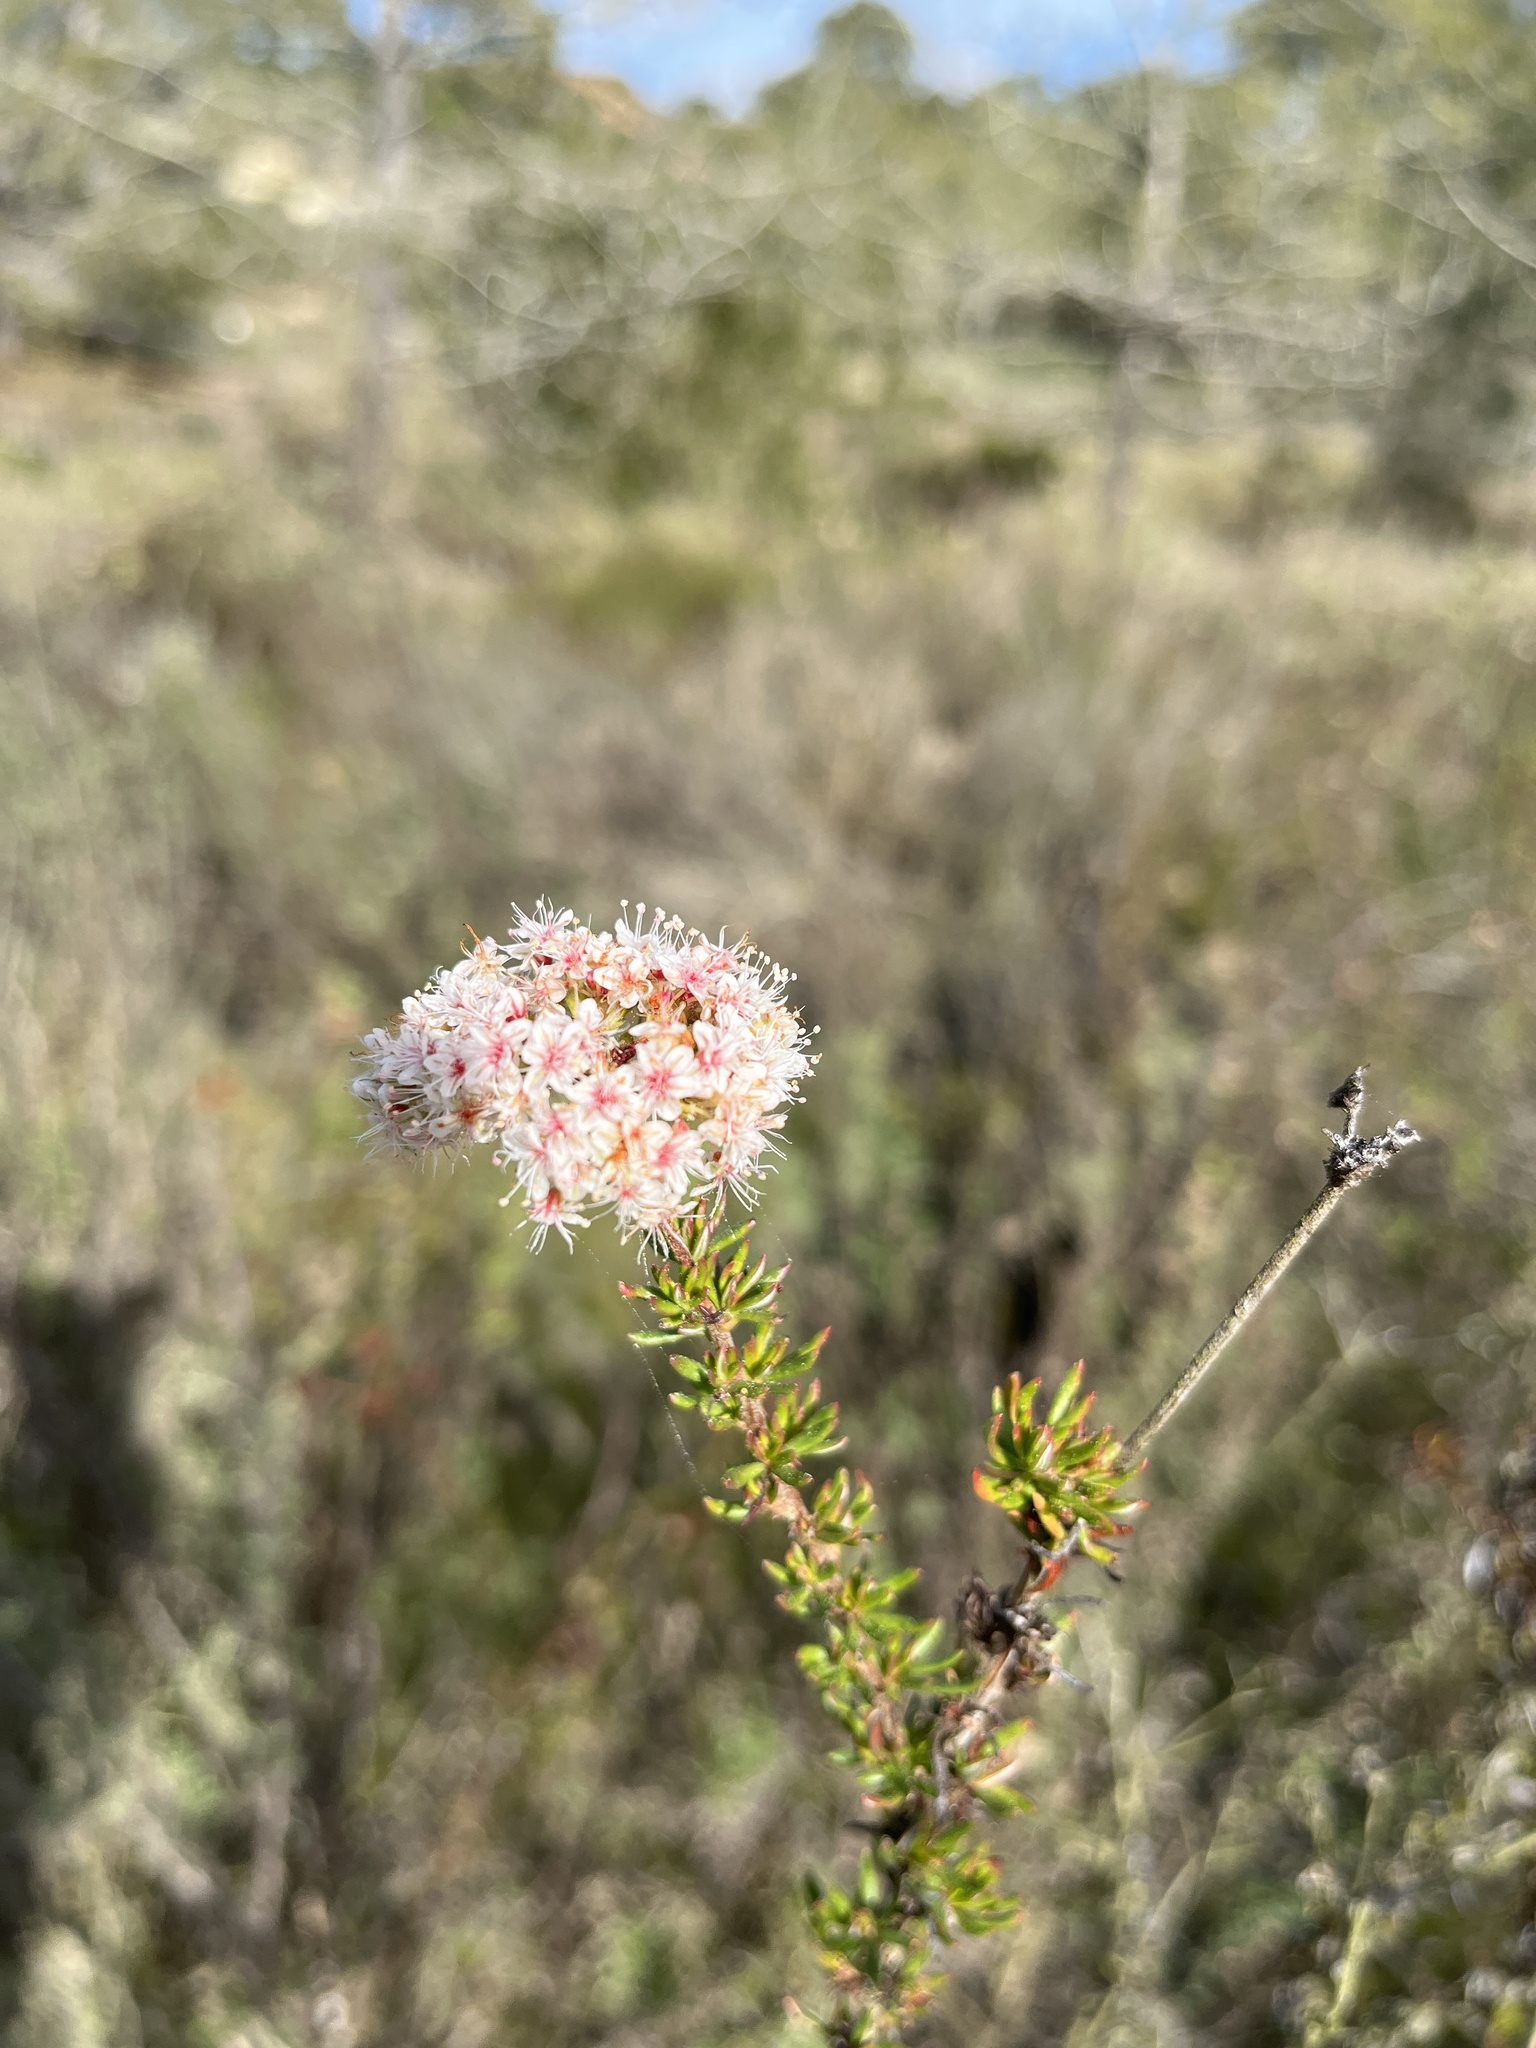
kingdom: Plantae
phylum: Tracheophyta
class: Magnoliopsida
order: Caryophyllales
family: Polygonaceae
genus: Eriogonum
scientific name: Eriogonum fasciculatum
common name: California wild buckwheat
